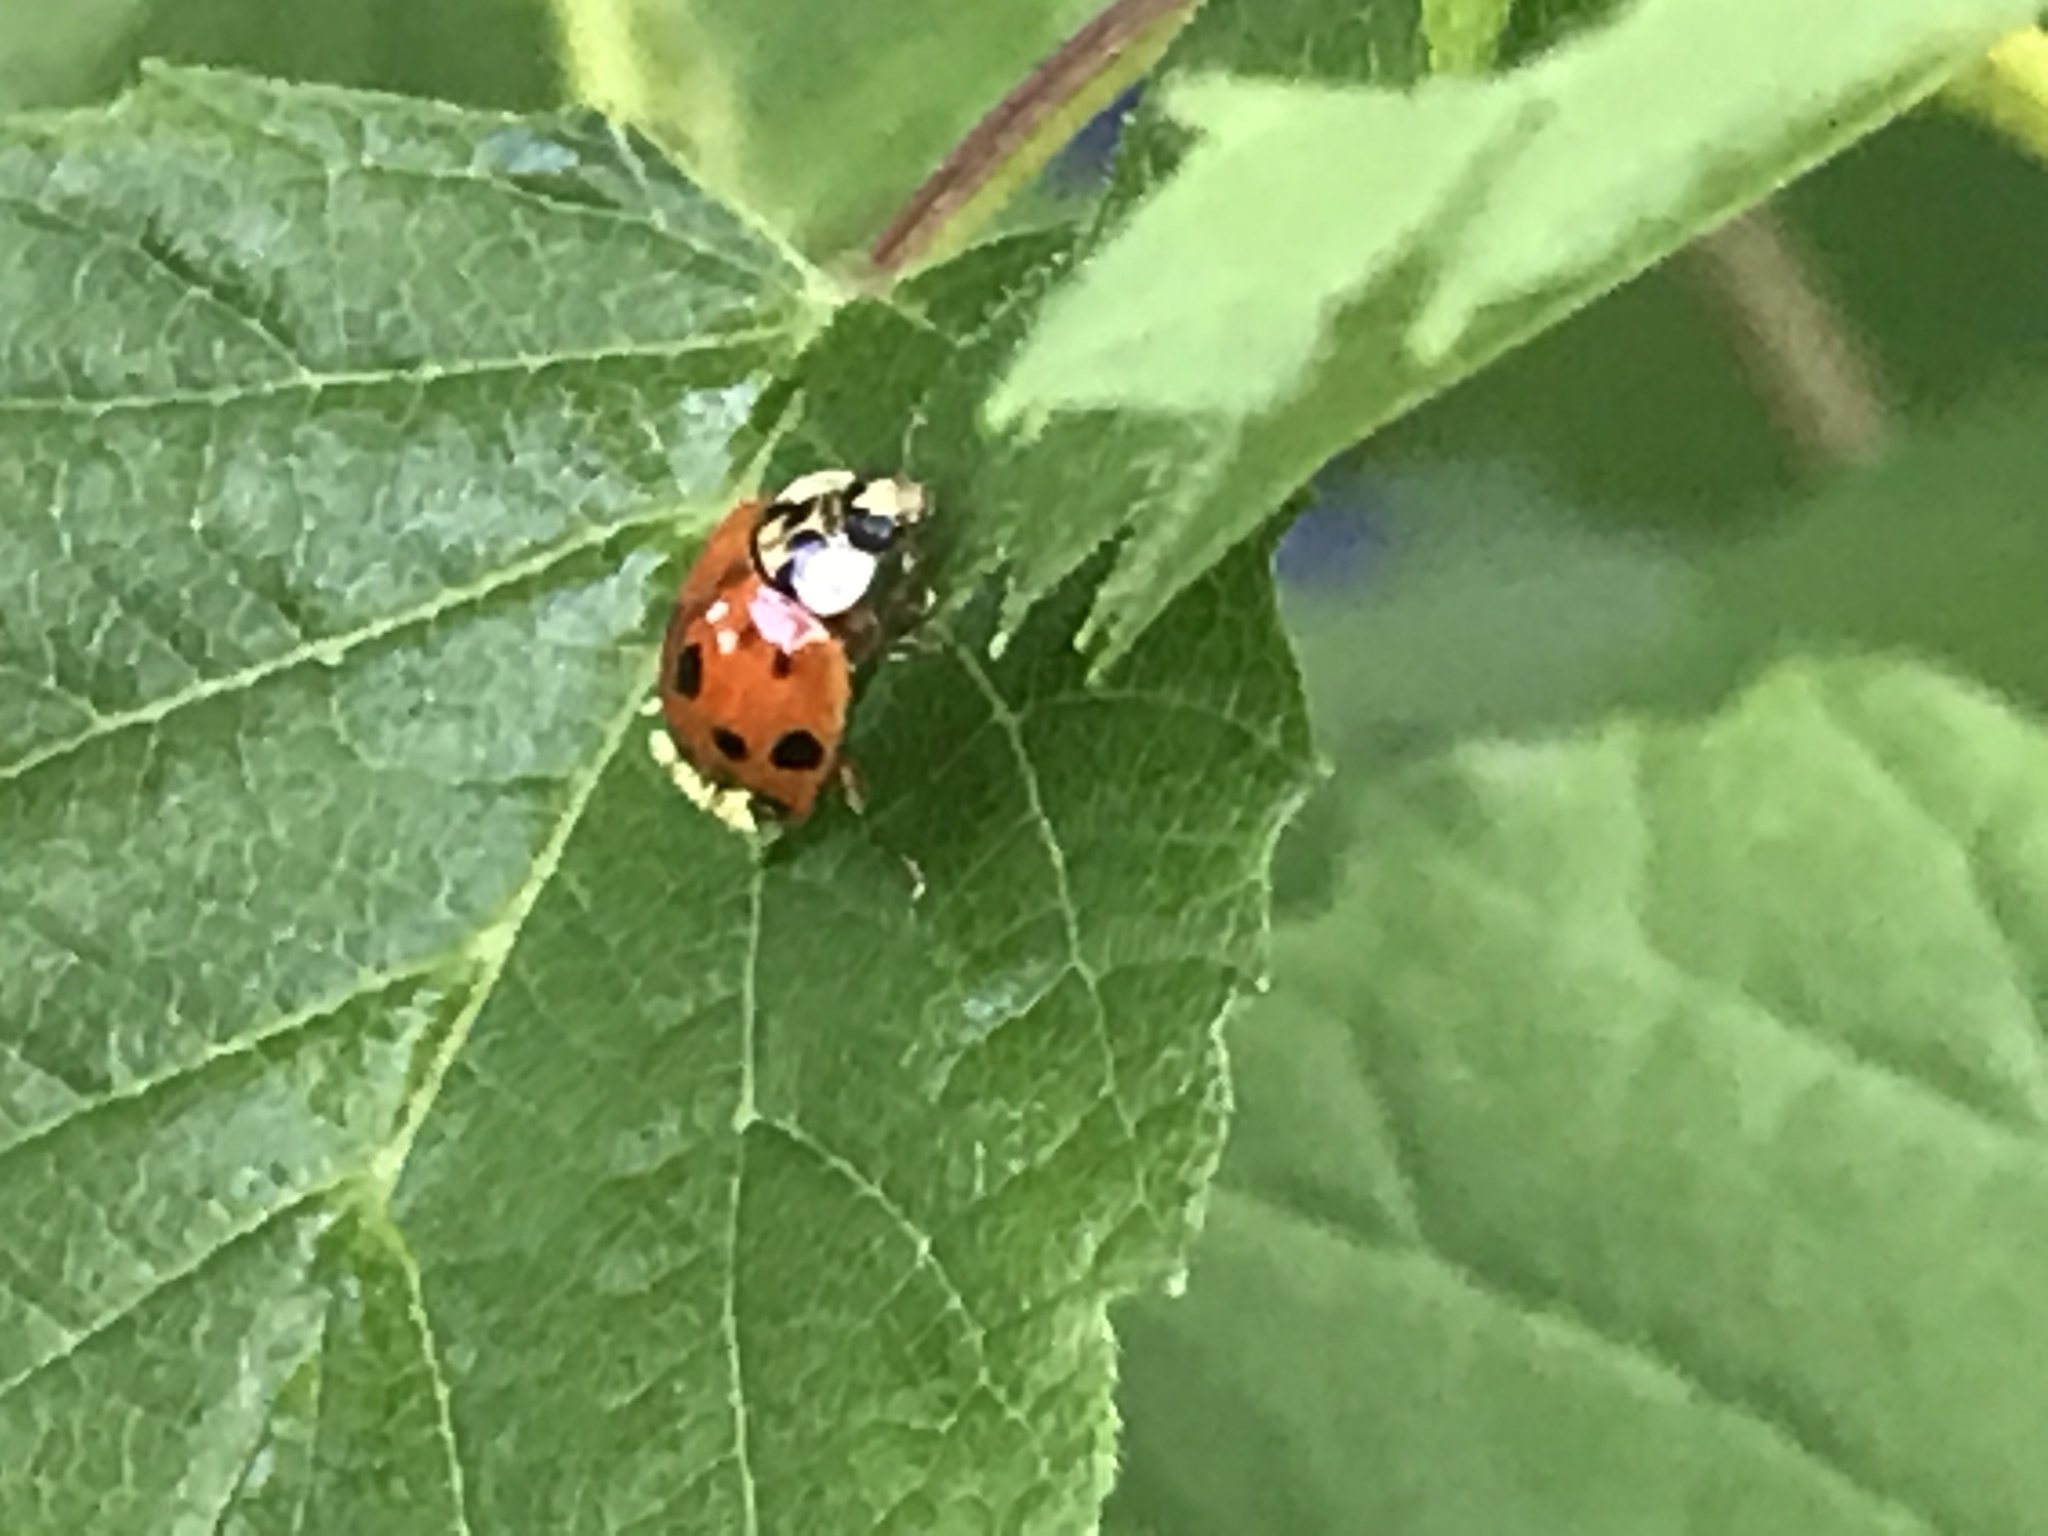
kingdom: Fungi
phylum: Ascomycota
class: Laboulbeniomycetes
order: Laboulbeniales
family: Laboulbeniaceae
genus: Hesperomyces
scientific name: Hesperomyces harmoniae
